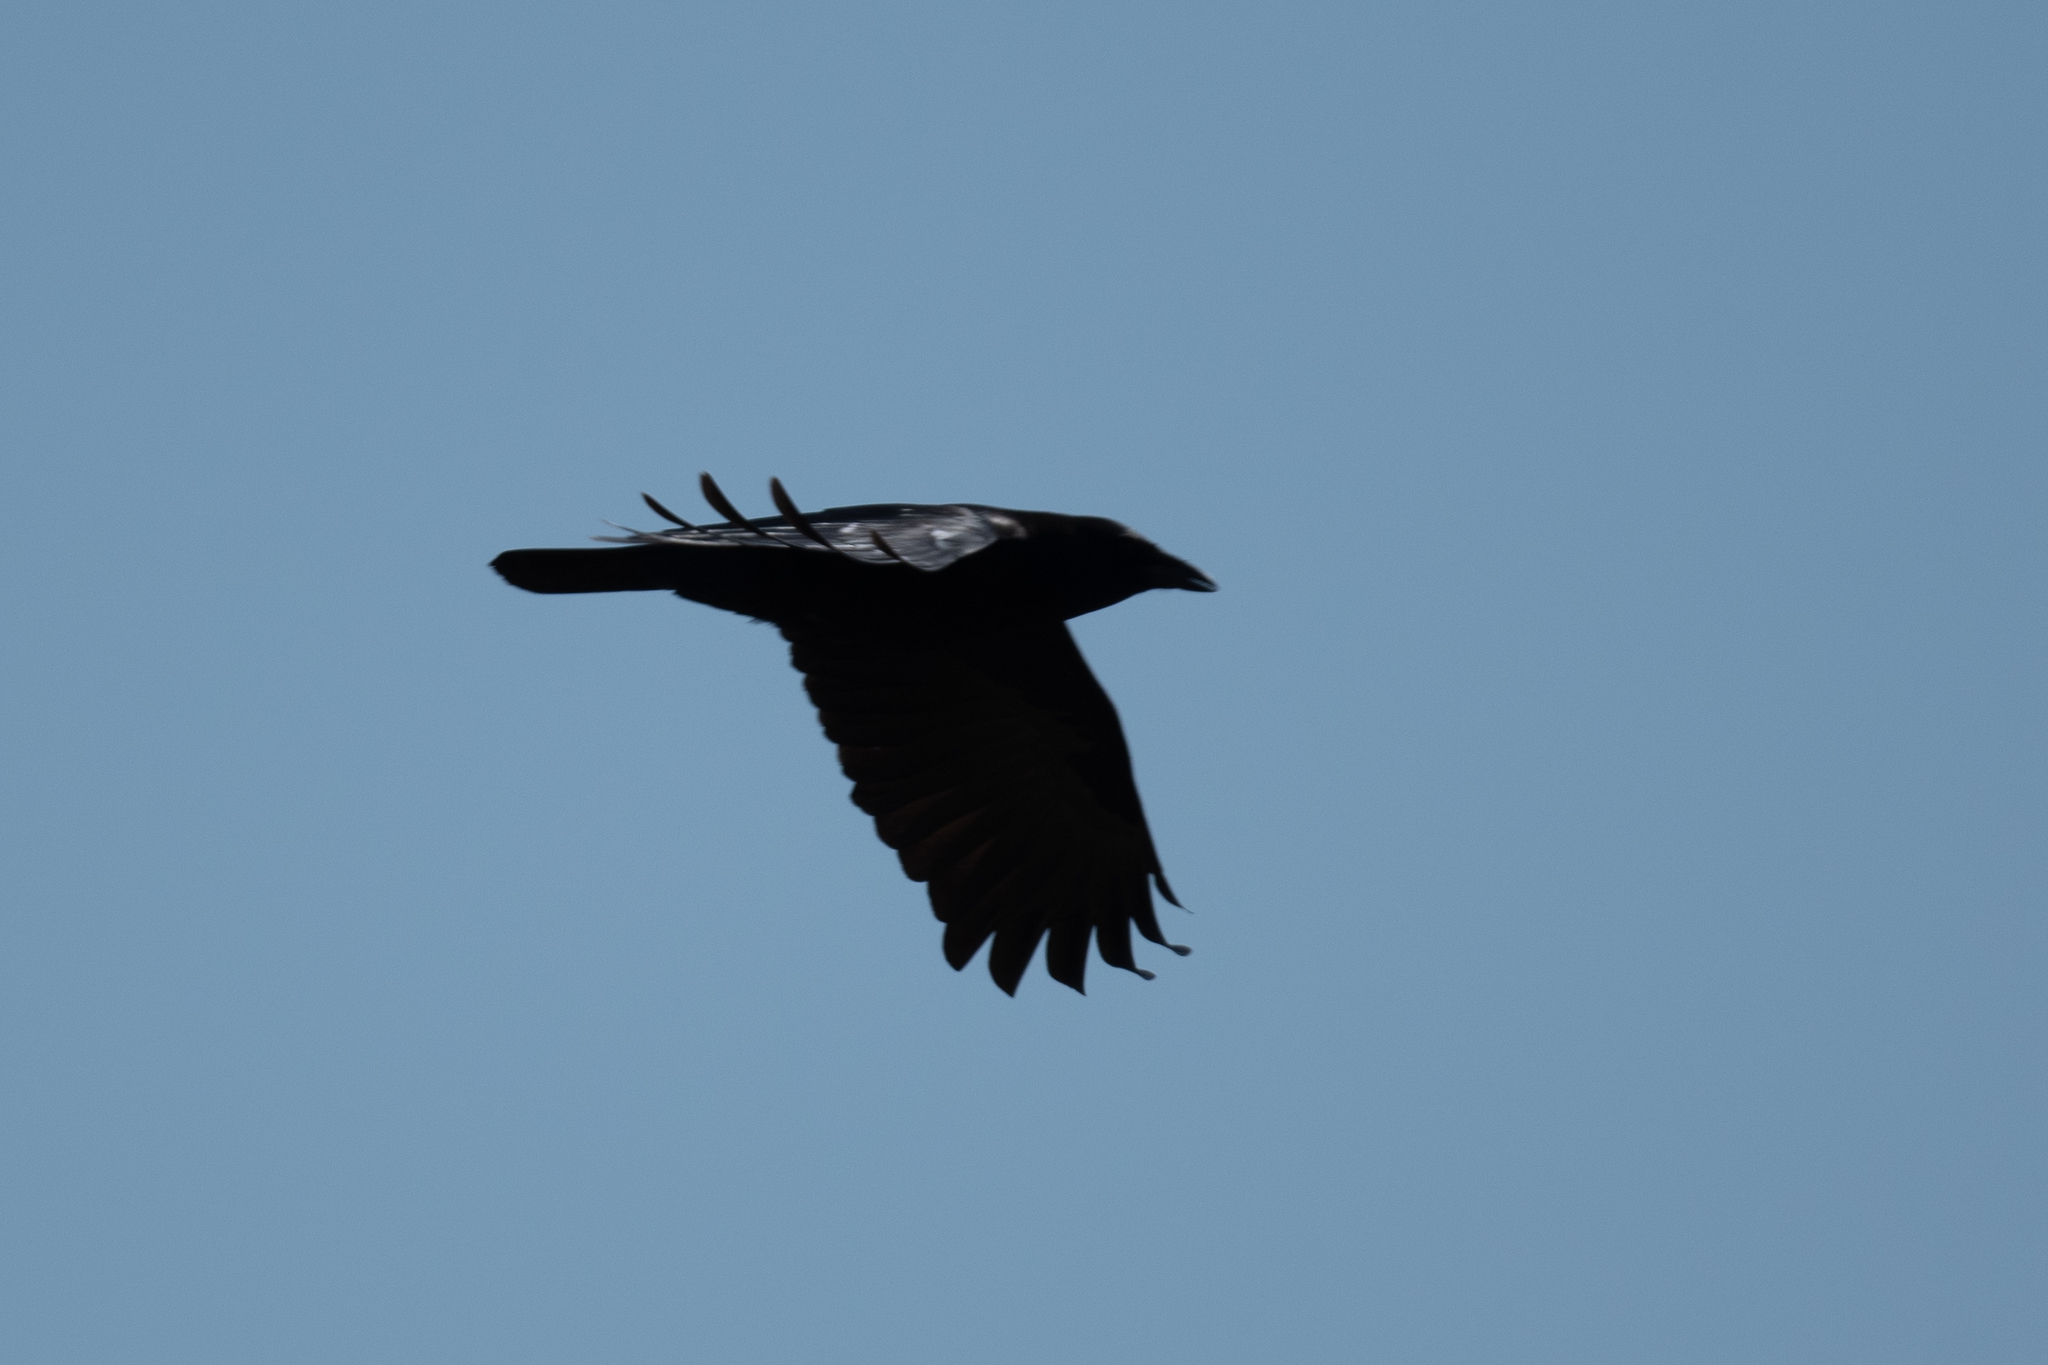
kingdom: Animalia
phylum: Chordata
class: Aves
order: Passeriformes
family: Corvidae
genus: Corvus
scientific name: Corvus corax
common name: Common raven
